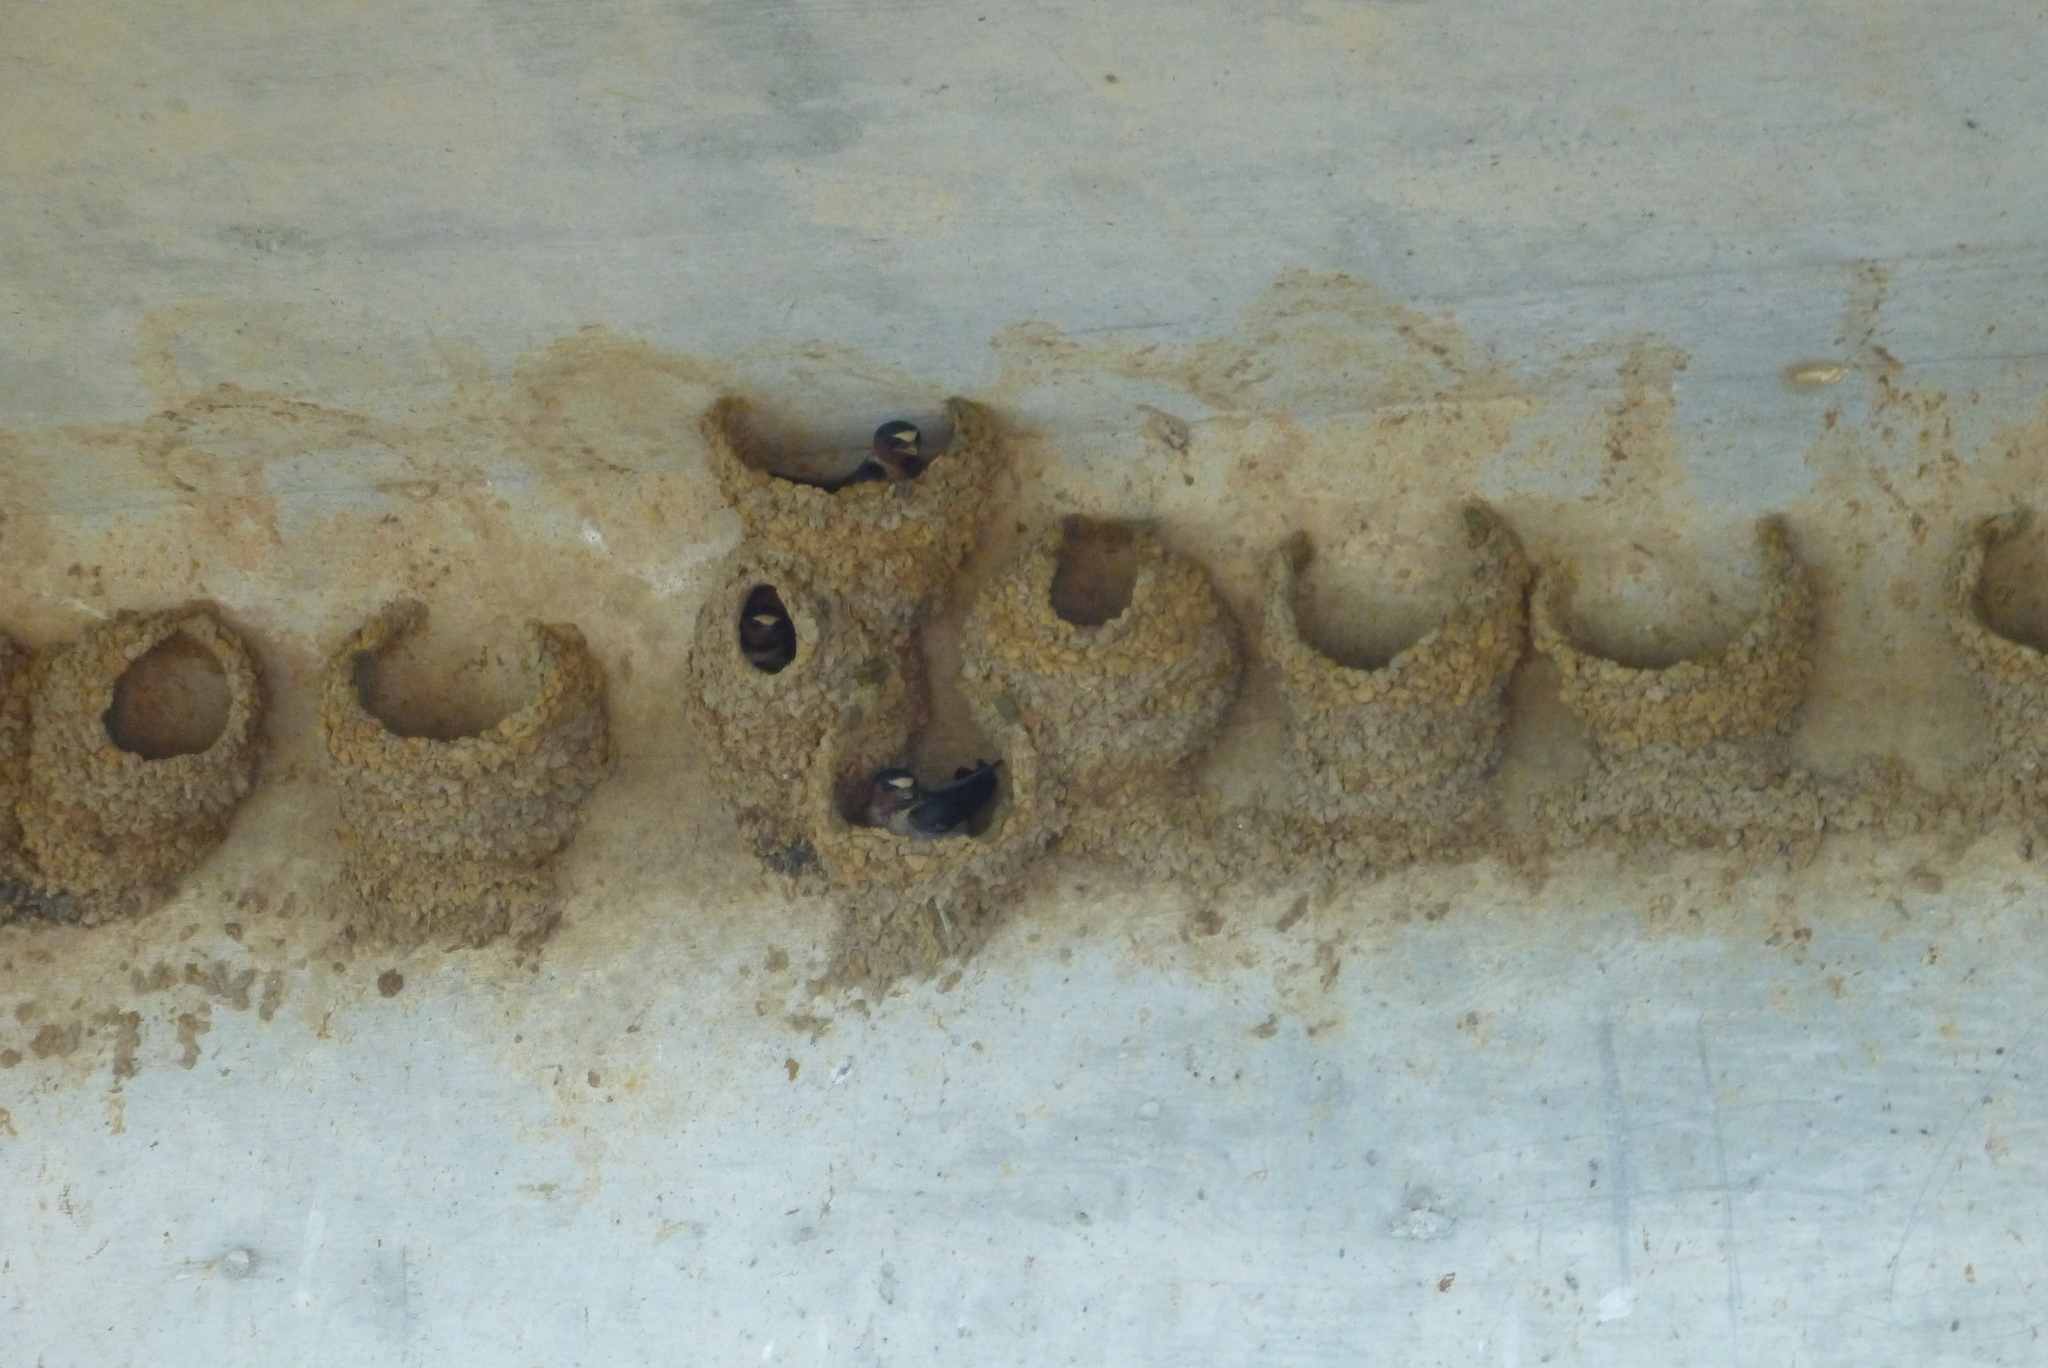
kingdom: Animalia
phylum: Chordata
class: Aves
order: Passeriformes
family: Hirundinidae
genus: Petrochelidon
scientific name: Petrochelidon pyrrhonota
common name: American cliff swallow
